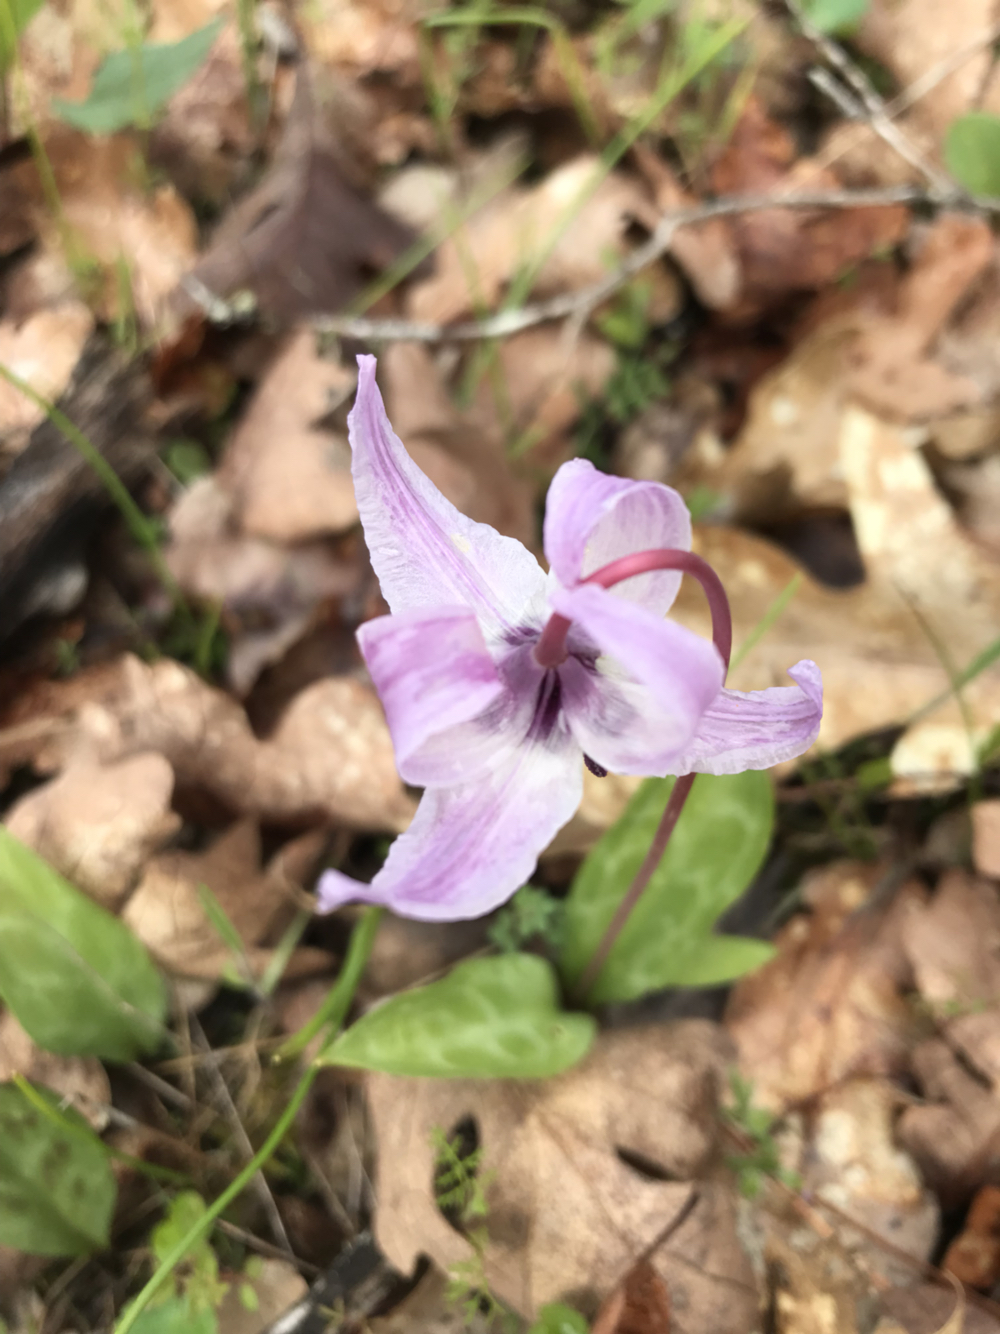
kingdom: Plantae
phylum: Tracheophyta
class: Liliopsida
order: Liliales
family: Liliaceae
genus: Erythronium
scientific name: Erythronium hendersonii
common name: Henderson's fawn-lily
